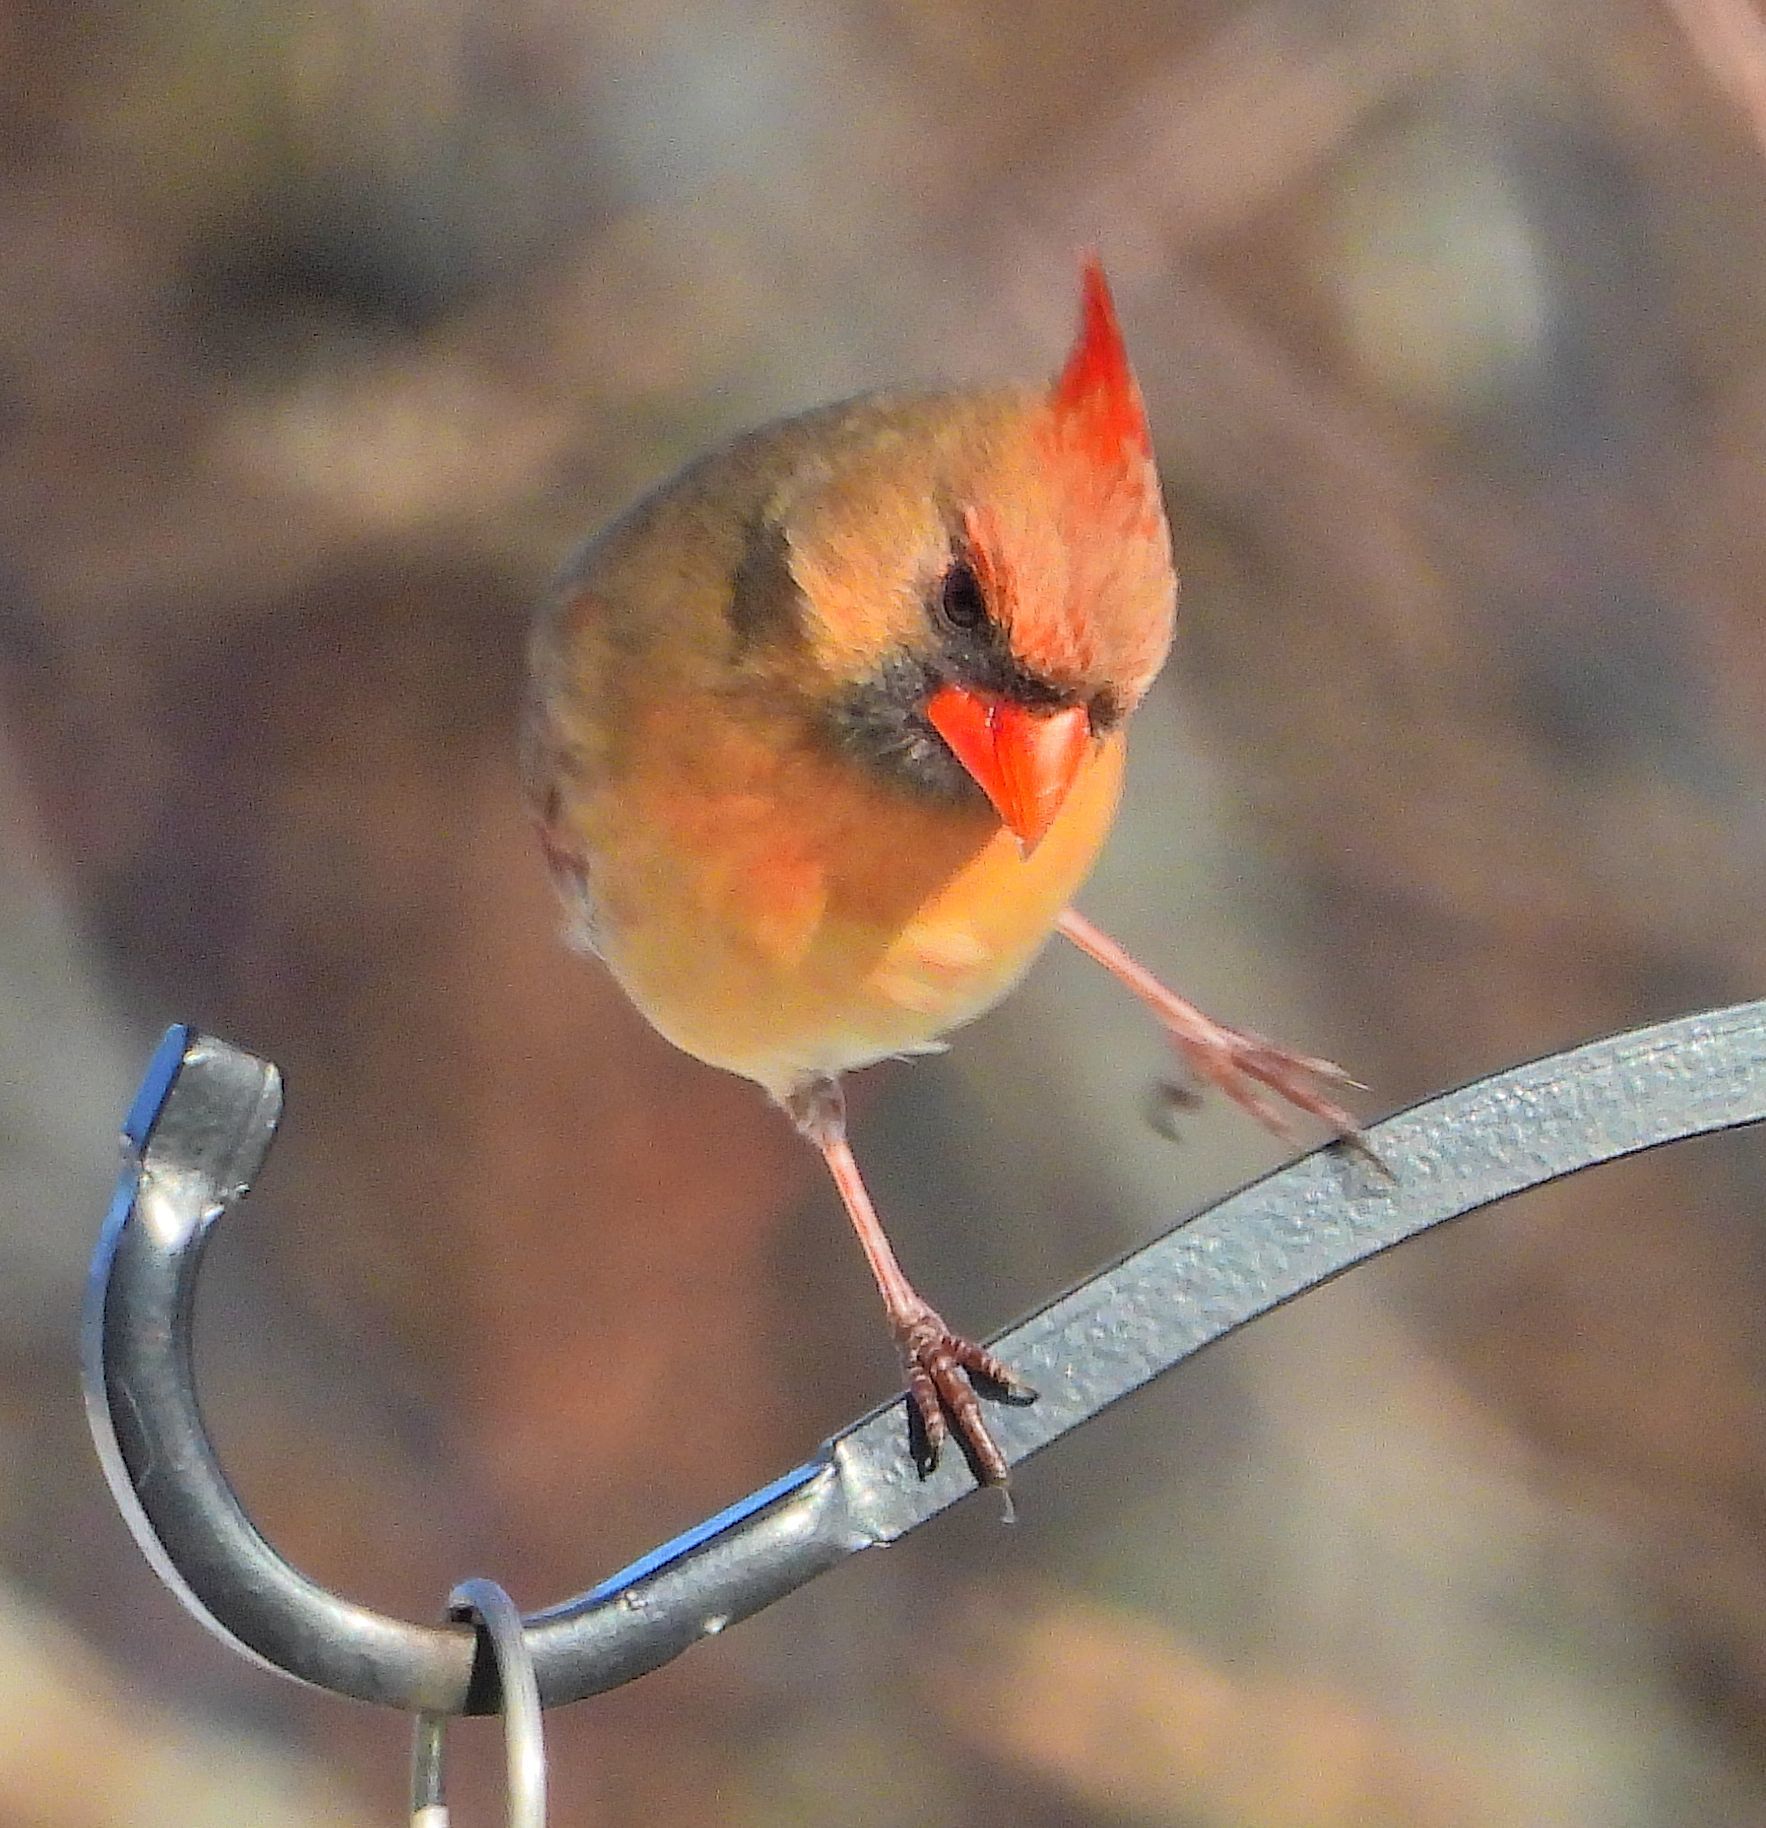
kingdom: Animalia
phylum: Chordata
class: Aves
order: Passeriformes
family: Cardinalidae
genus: Cardinalis
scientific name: Cardinalis cardinalis
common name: Northern cardinal
